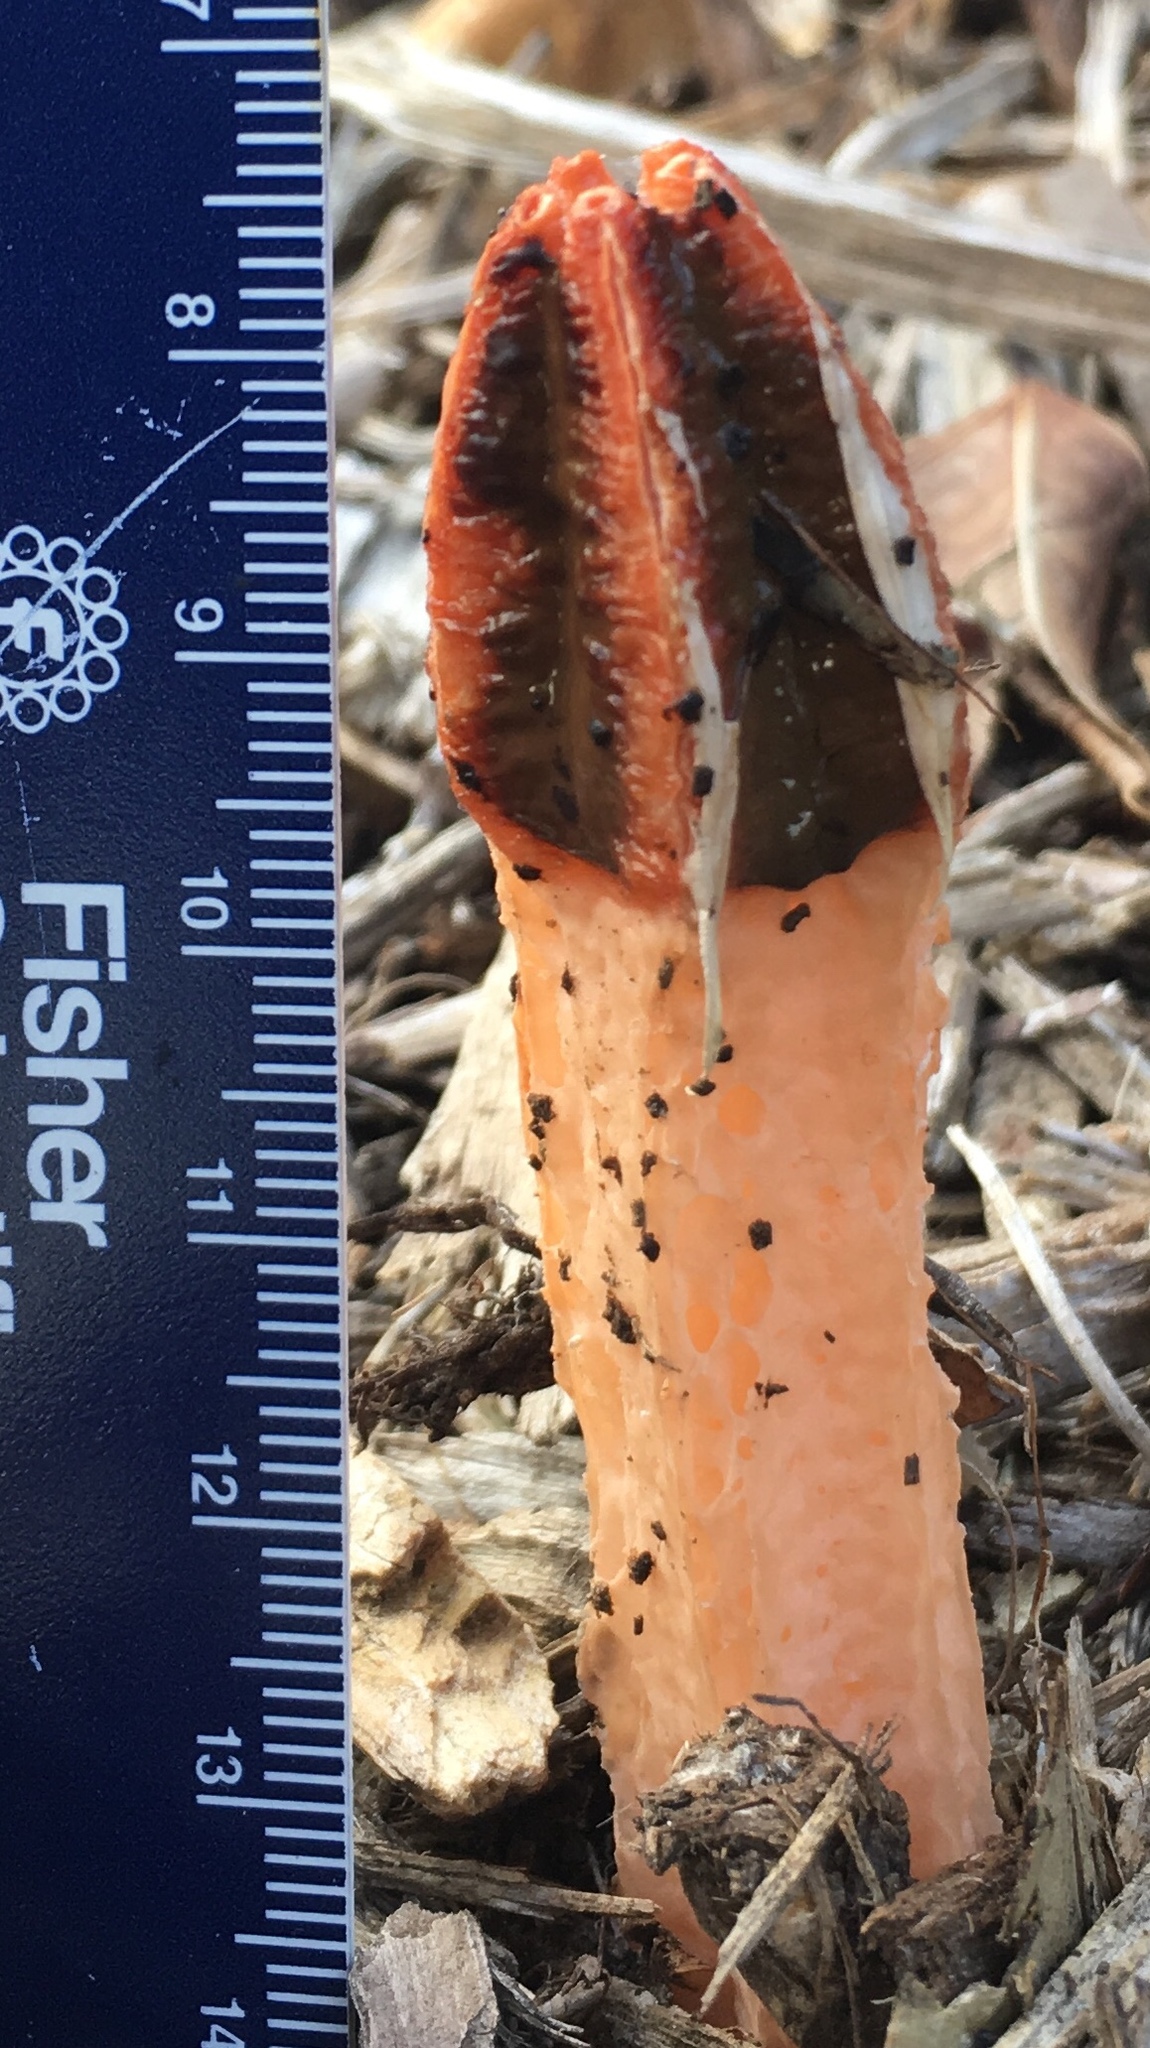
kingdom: Fungi
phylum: Basidiomycota
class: Agaricomycetes
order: Phallales
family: Phallaceae
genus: Lysurus
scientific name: Lysurus mokusin
